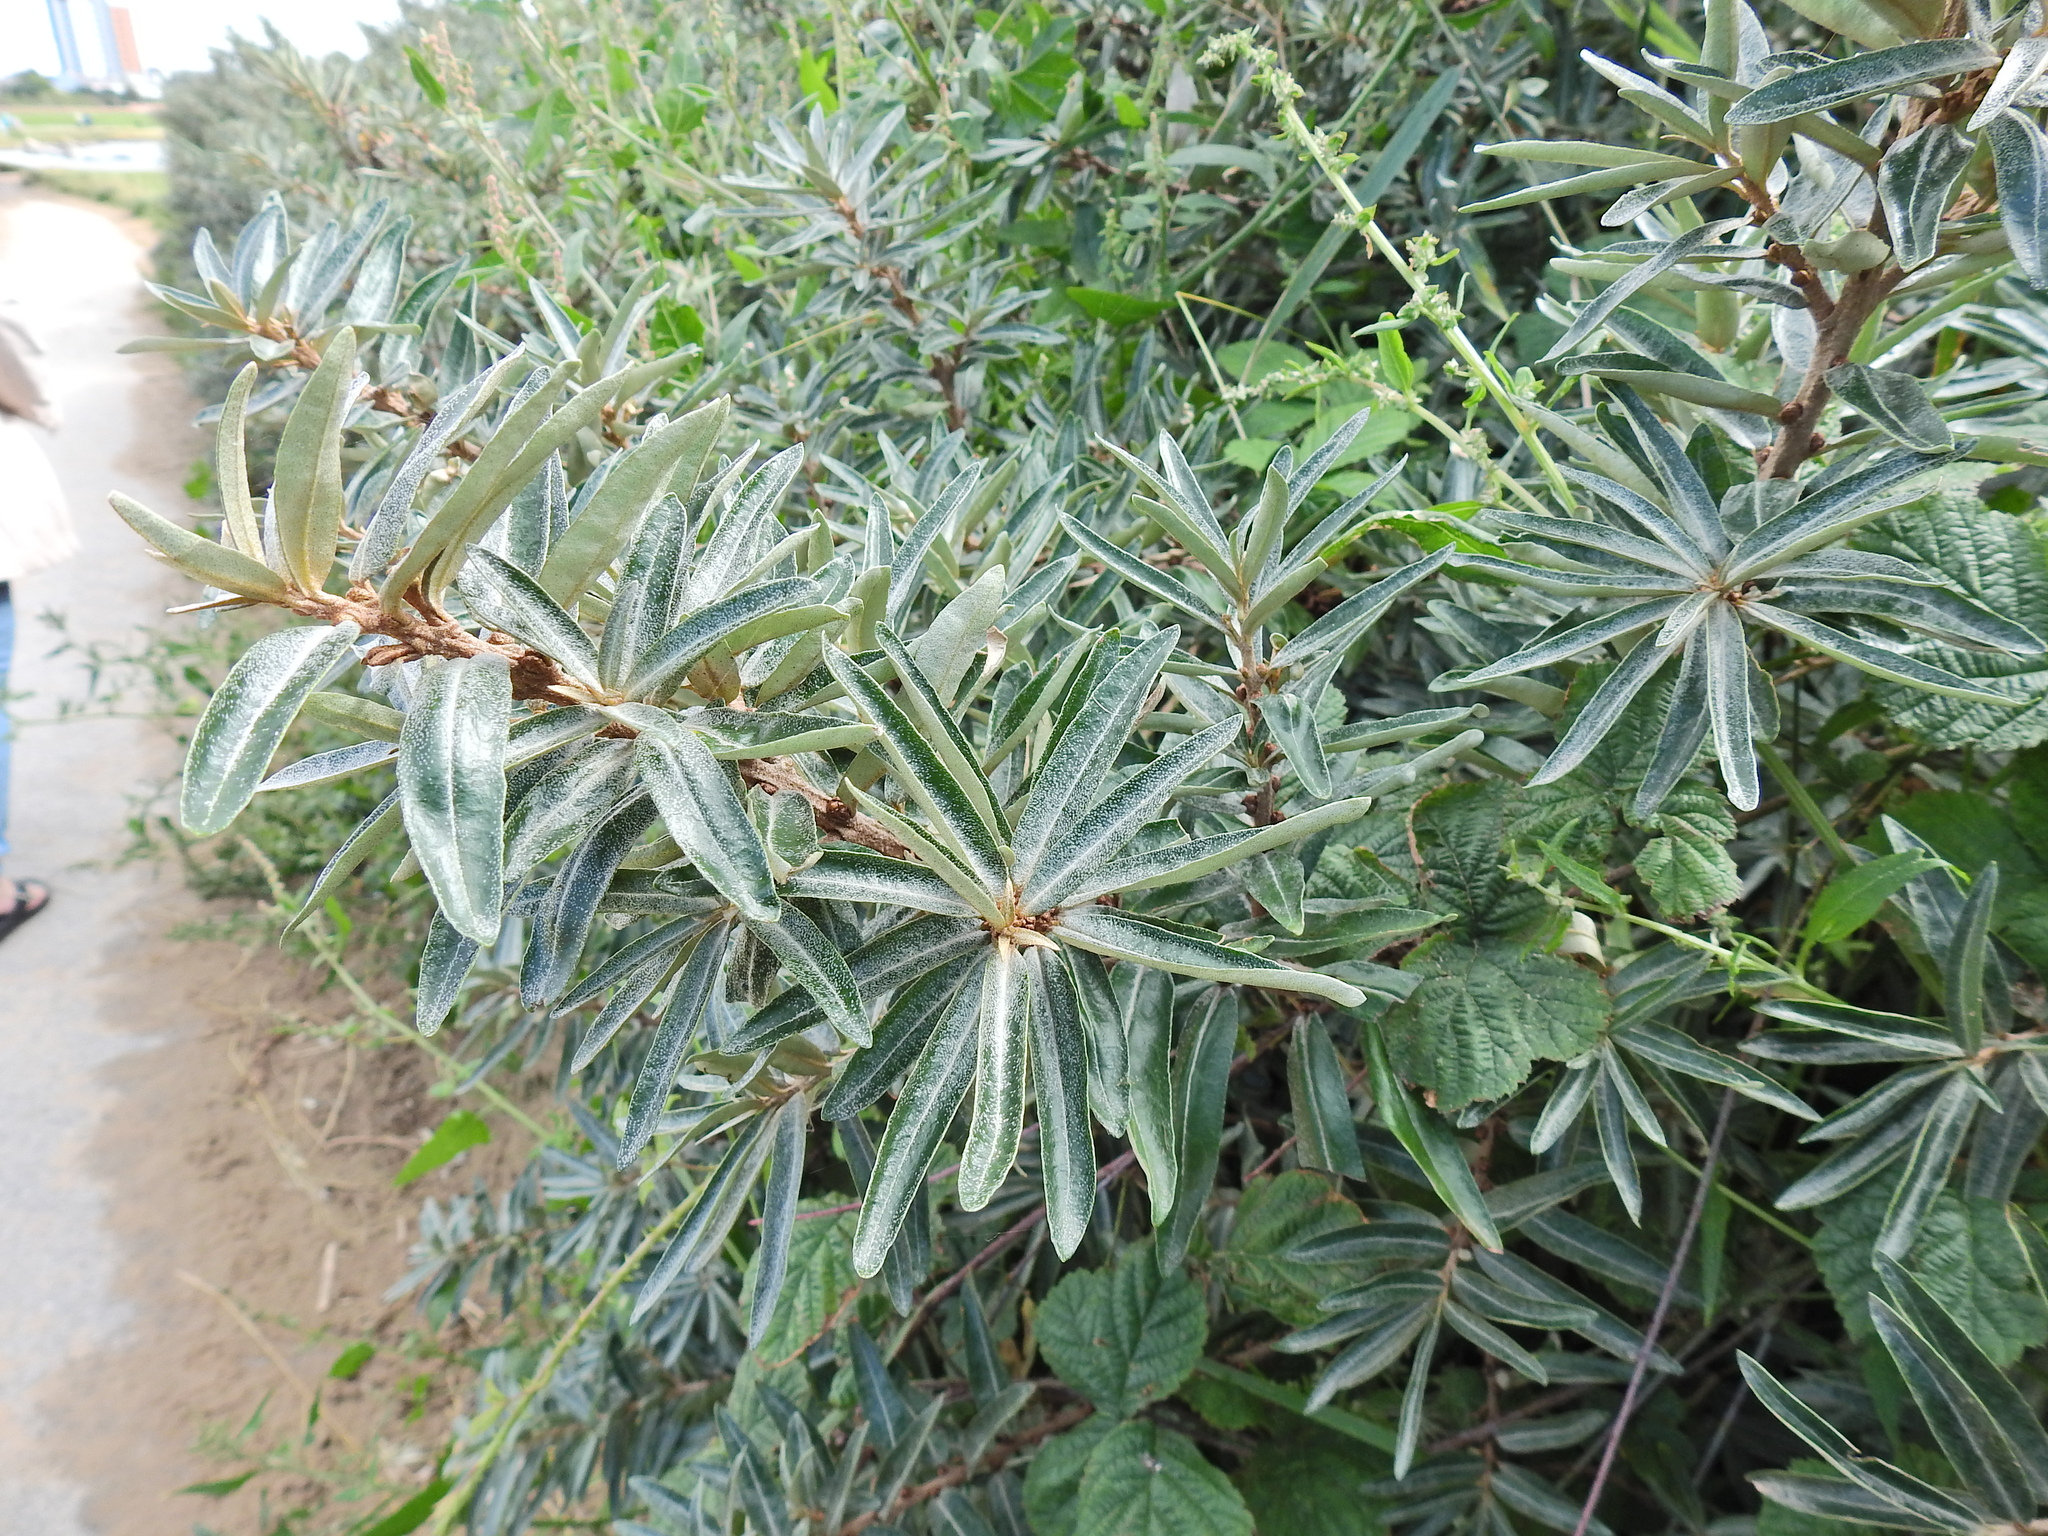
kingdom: Plantae
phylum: Tracheophyta
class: Magnoliopsida
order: Rosales
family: Elaeagnaceae
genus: Hippophae
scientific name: Hippophae rhamnoides
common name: Sea-buckthorn
